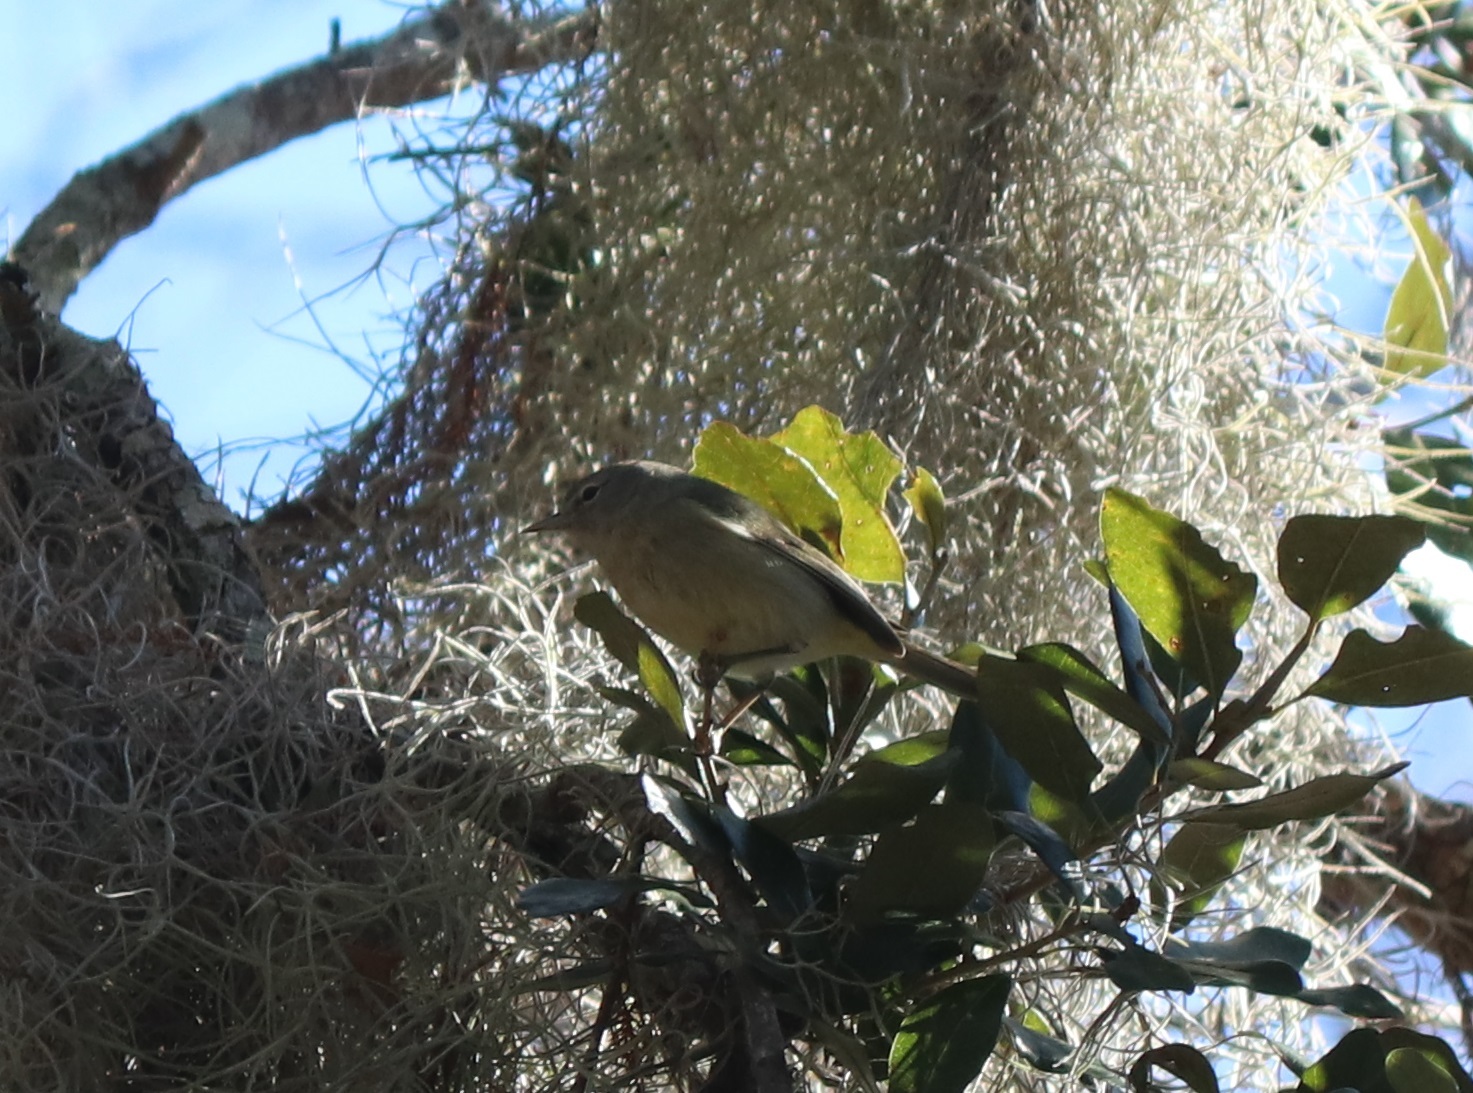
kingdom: Animalia
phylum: Chordata
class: Aves
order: Passeriformes
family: Parulidae
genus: Leiothlypis
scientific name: Leiothlypis celata
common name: Orange-crowned warbler
